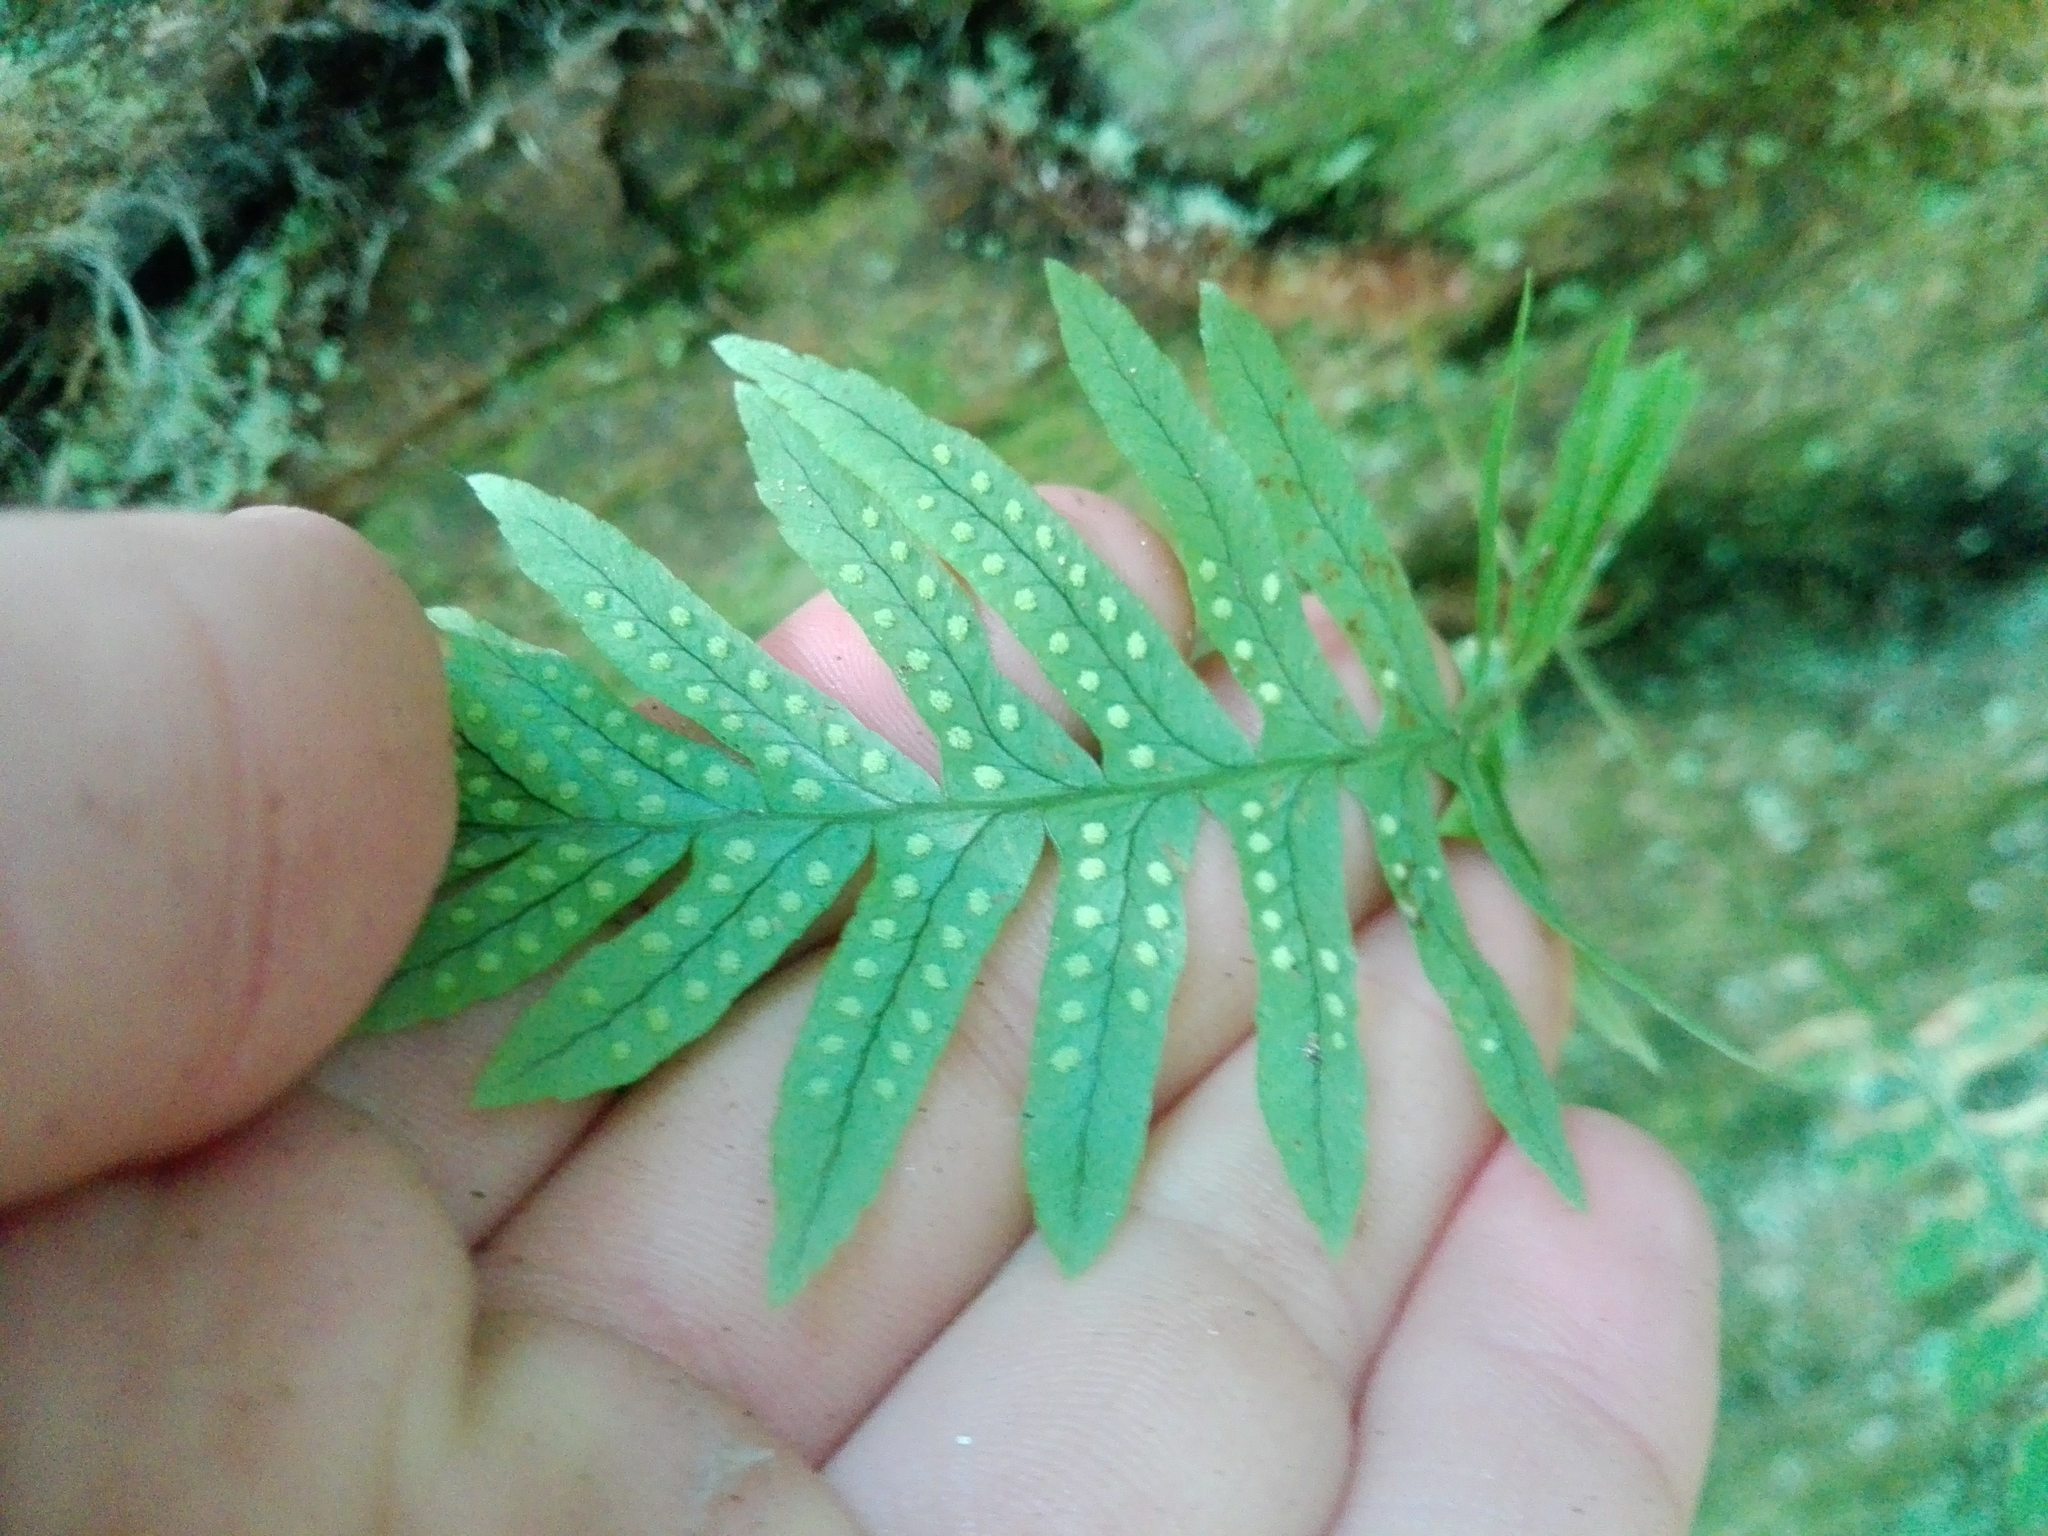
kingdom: Plantae
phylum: Tracheophyta
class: Polypodiopsida
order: Polypodiales
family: Polypodiaceae
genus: Polypodium
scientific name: Polypodium vulgare
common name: Common polypody
